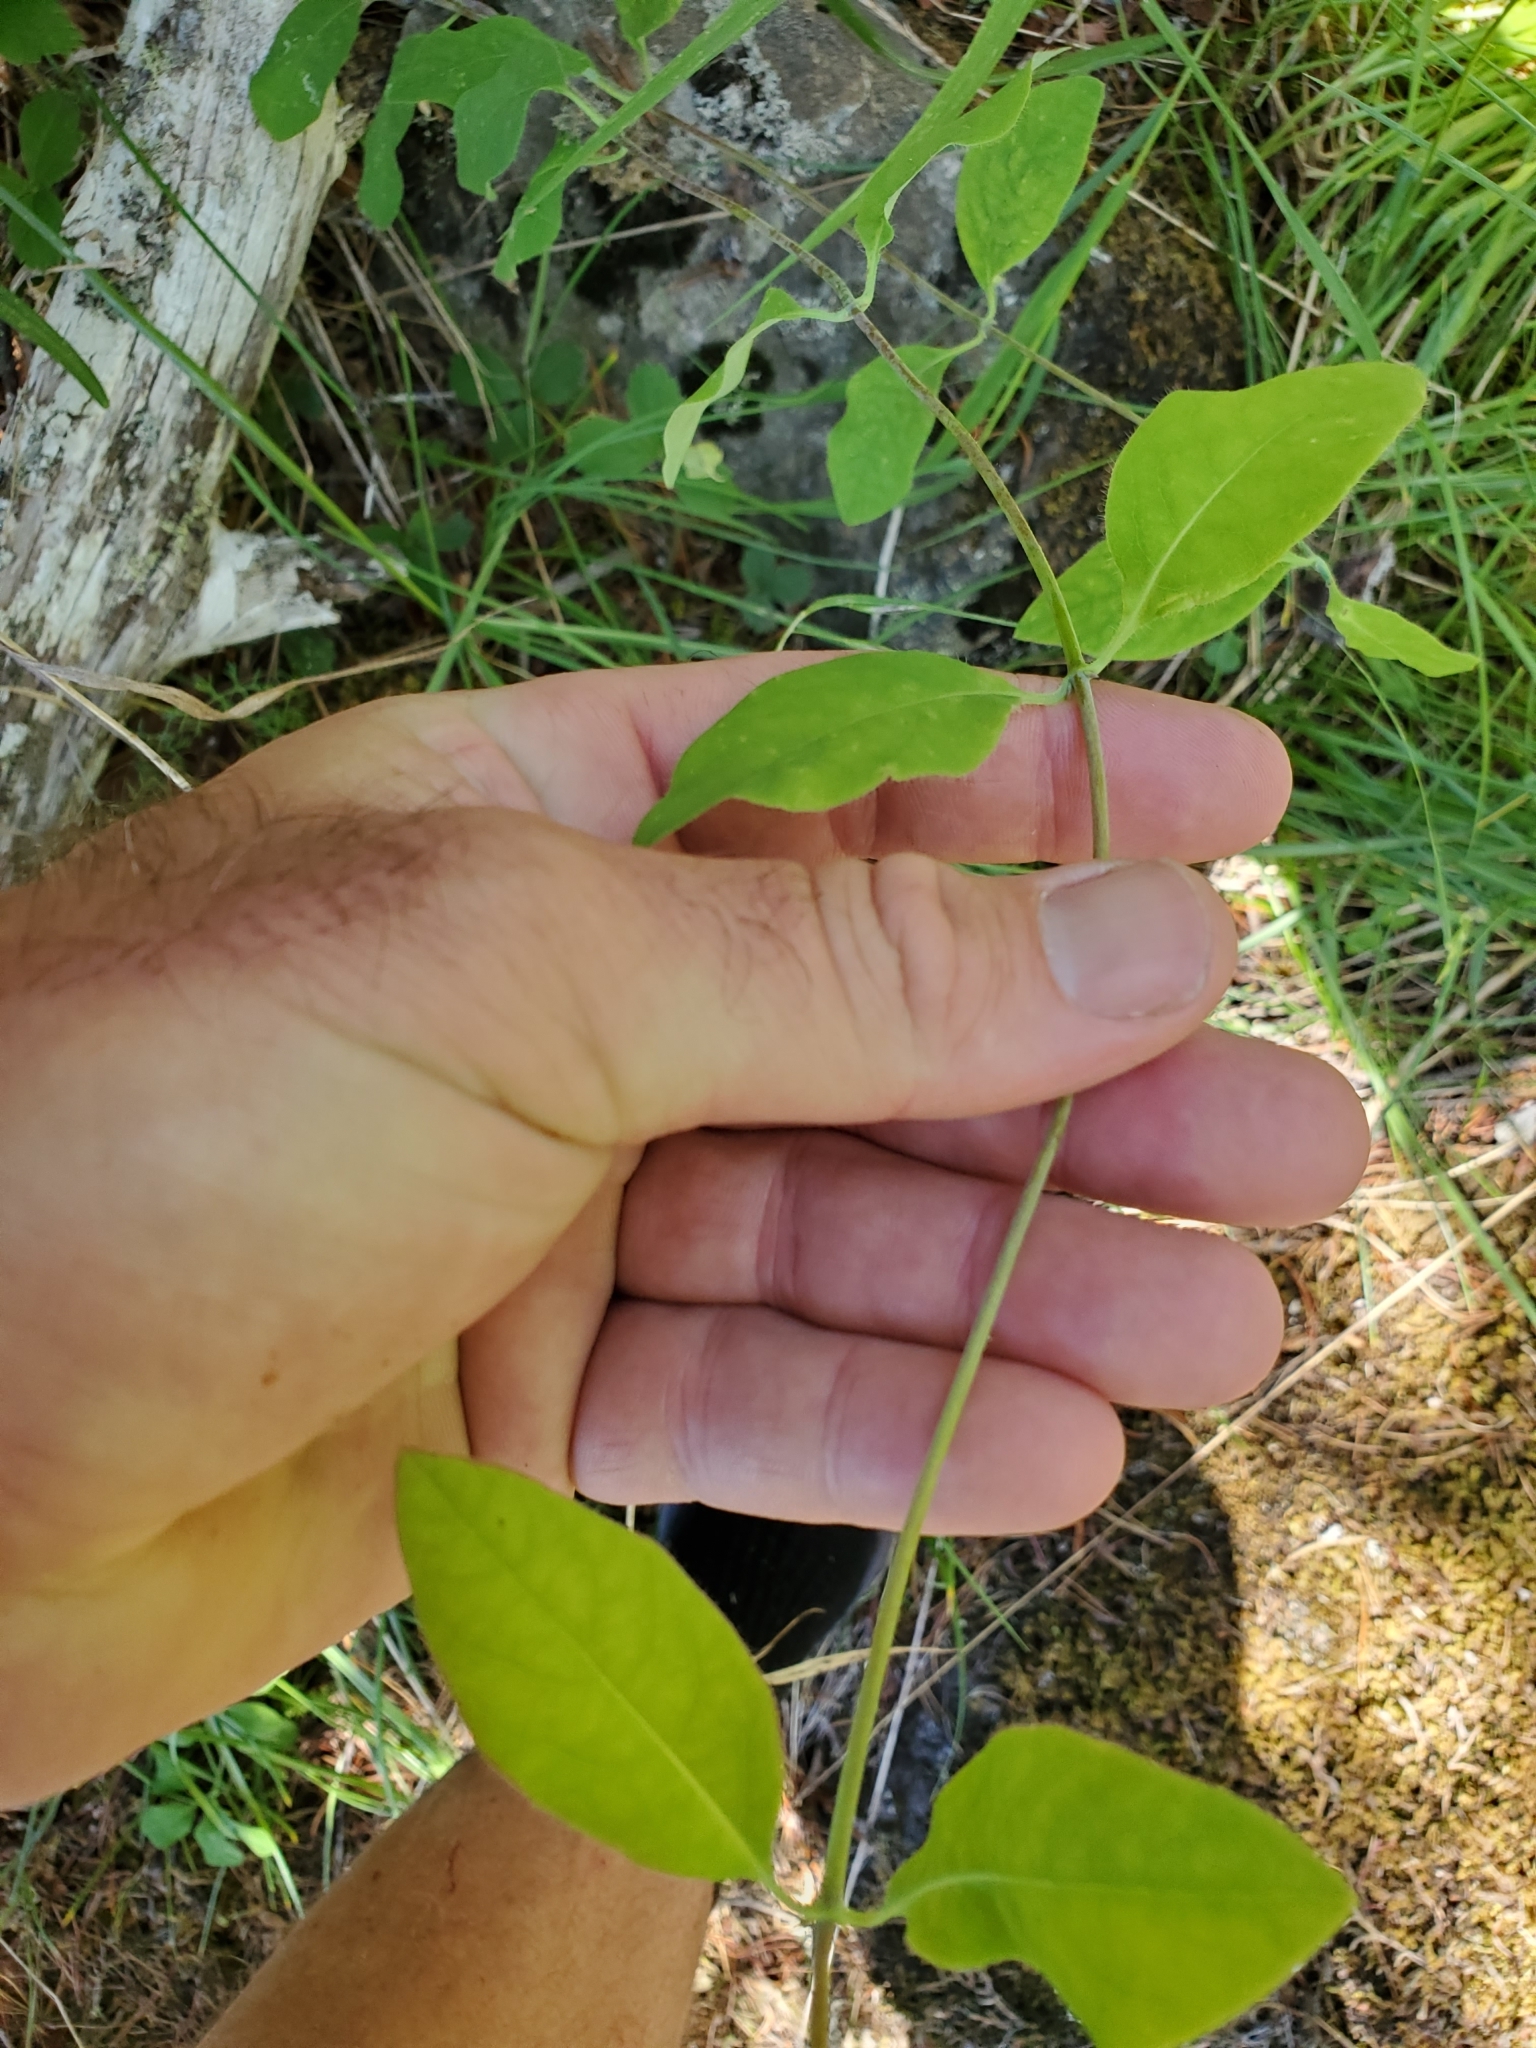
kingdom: Plantae
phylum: Tracheophyta
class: Magnoliopsida
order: Dipsacales
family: Caprifoliaceae
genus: Lonicera
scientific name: Lonicera ciliosa
